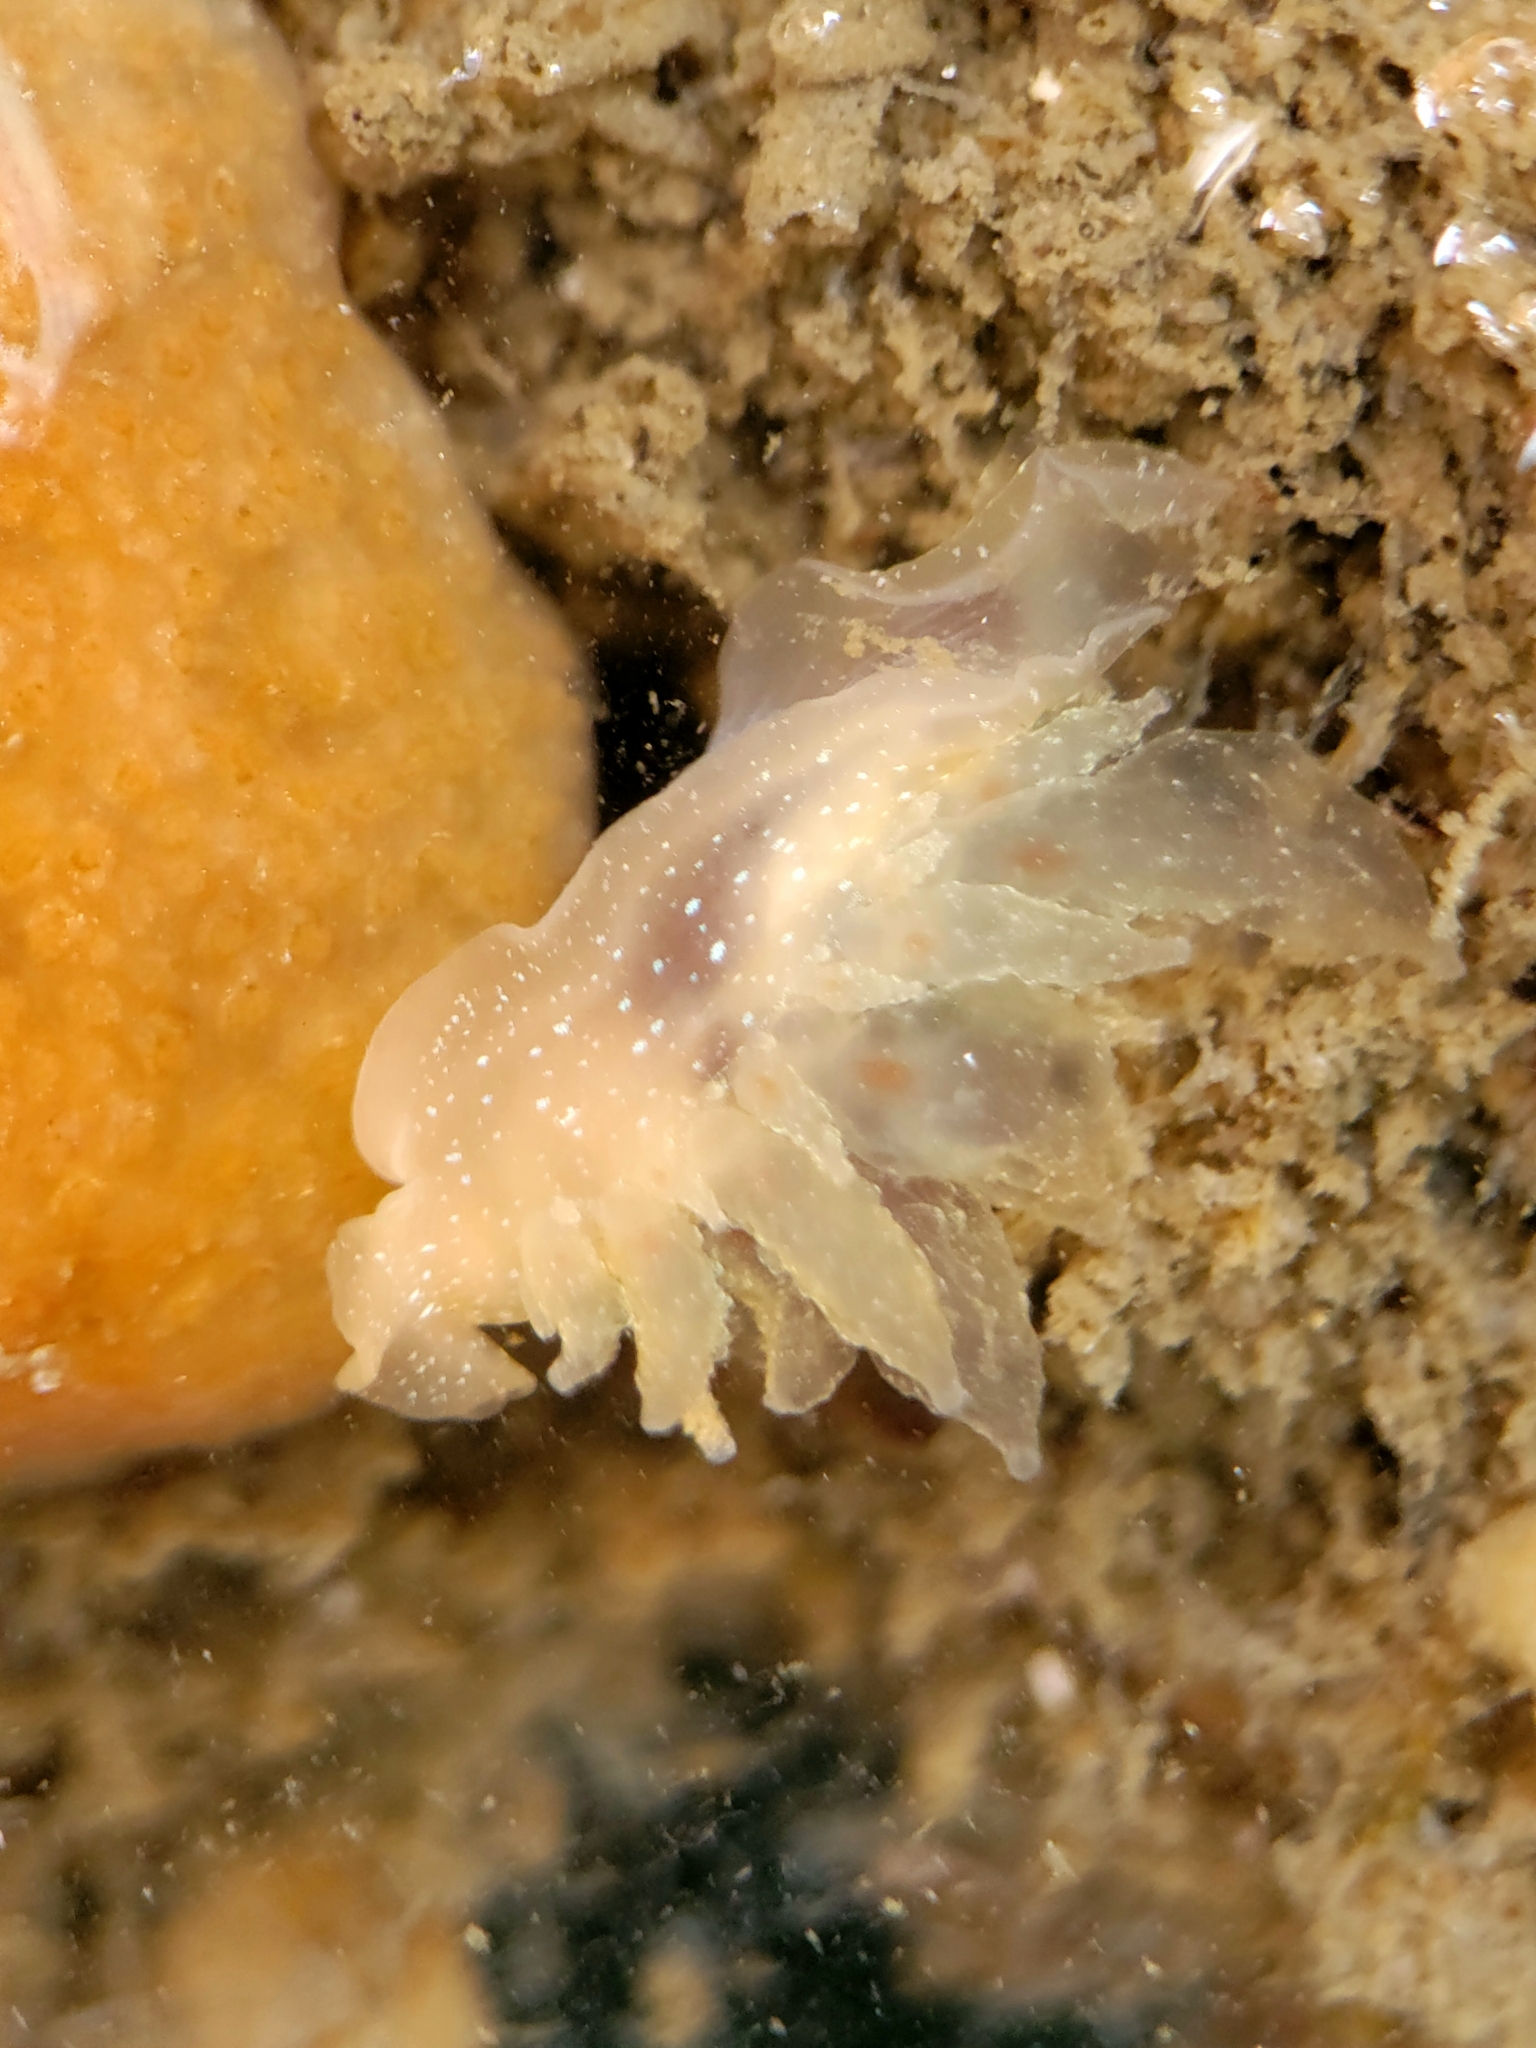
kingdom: Animalia
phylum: Mollusca
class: Gastropoda
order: Nudibranchia
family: Dironidae
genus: Dirona
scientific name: Dirona picta
